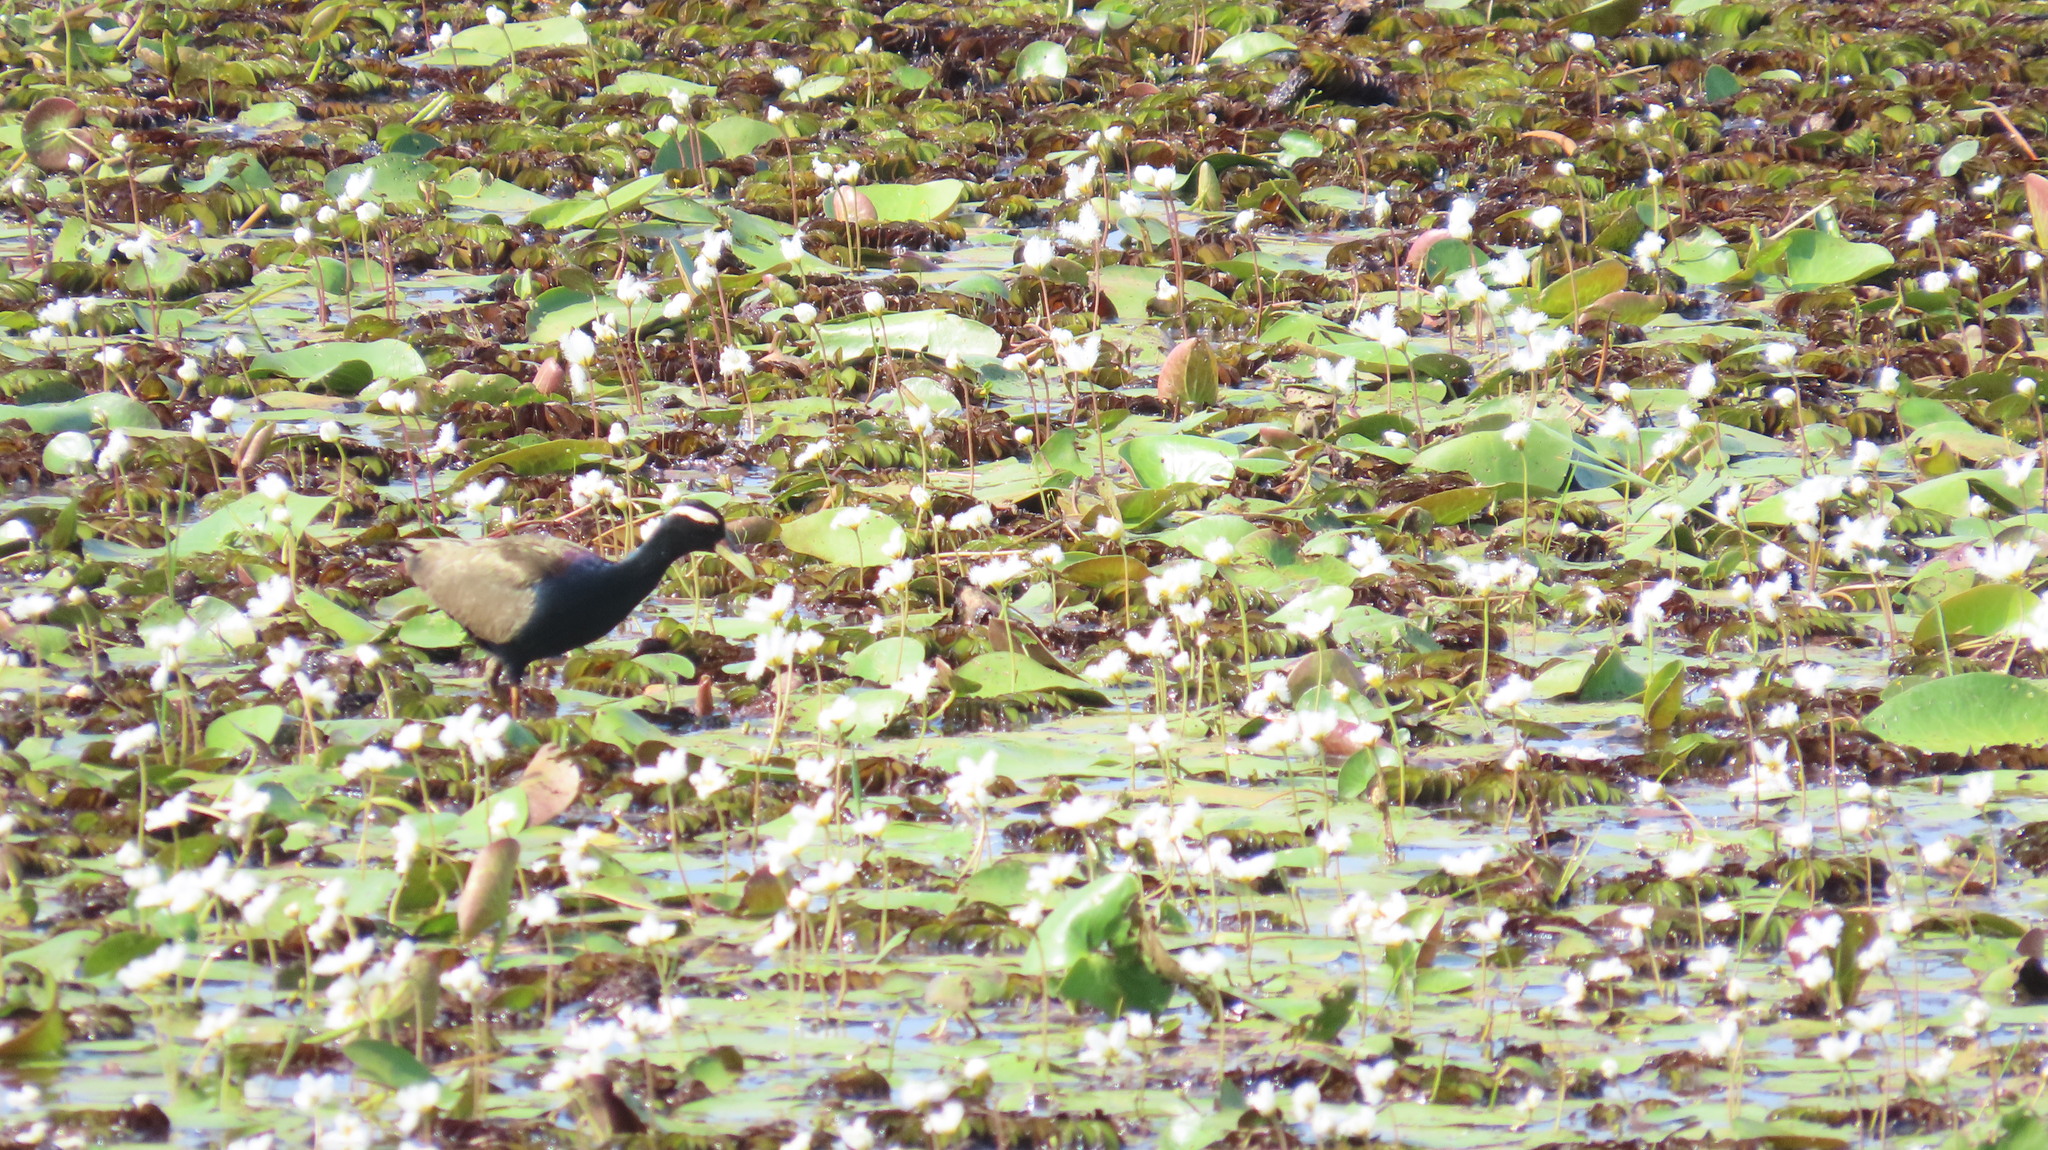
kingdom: Animalia
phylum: Chordata
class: Aves
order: Charadriiformes
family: Jacanidae
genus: Metopidius
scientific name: Metopidius indicus
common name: Bronze-winged jacana
